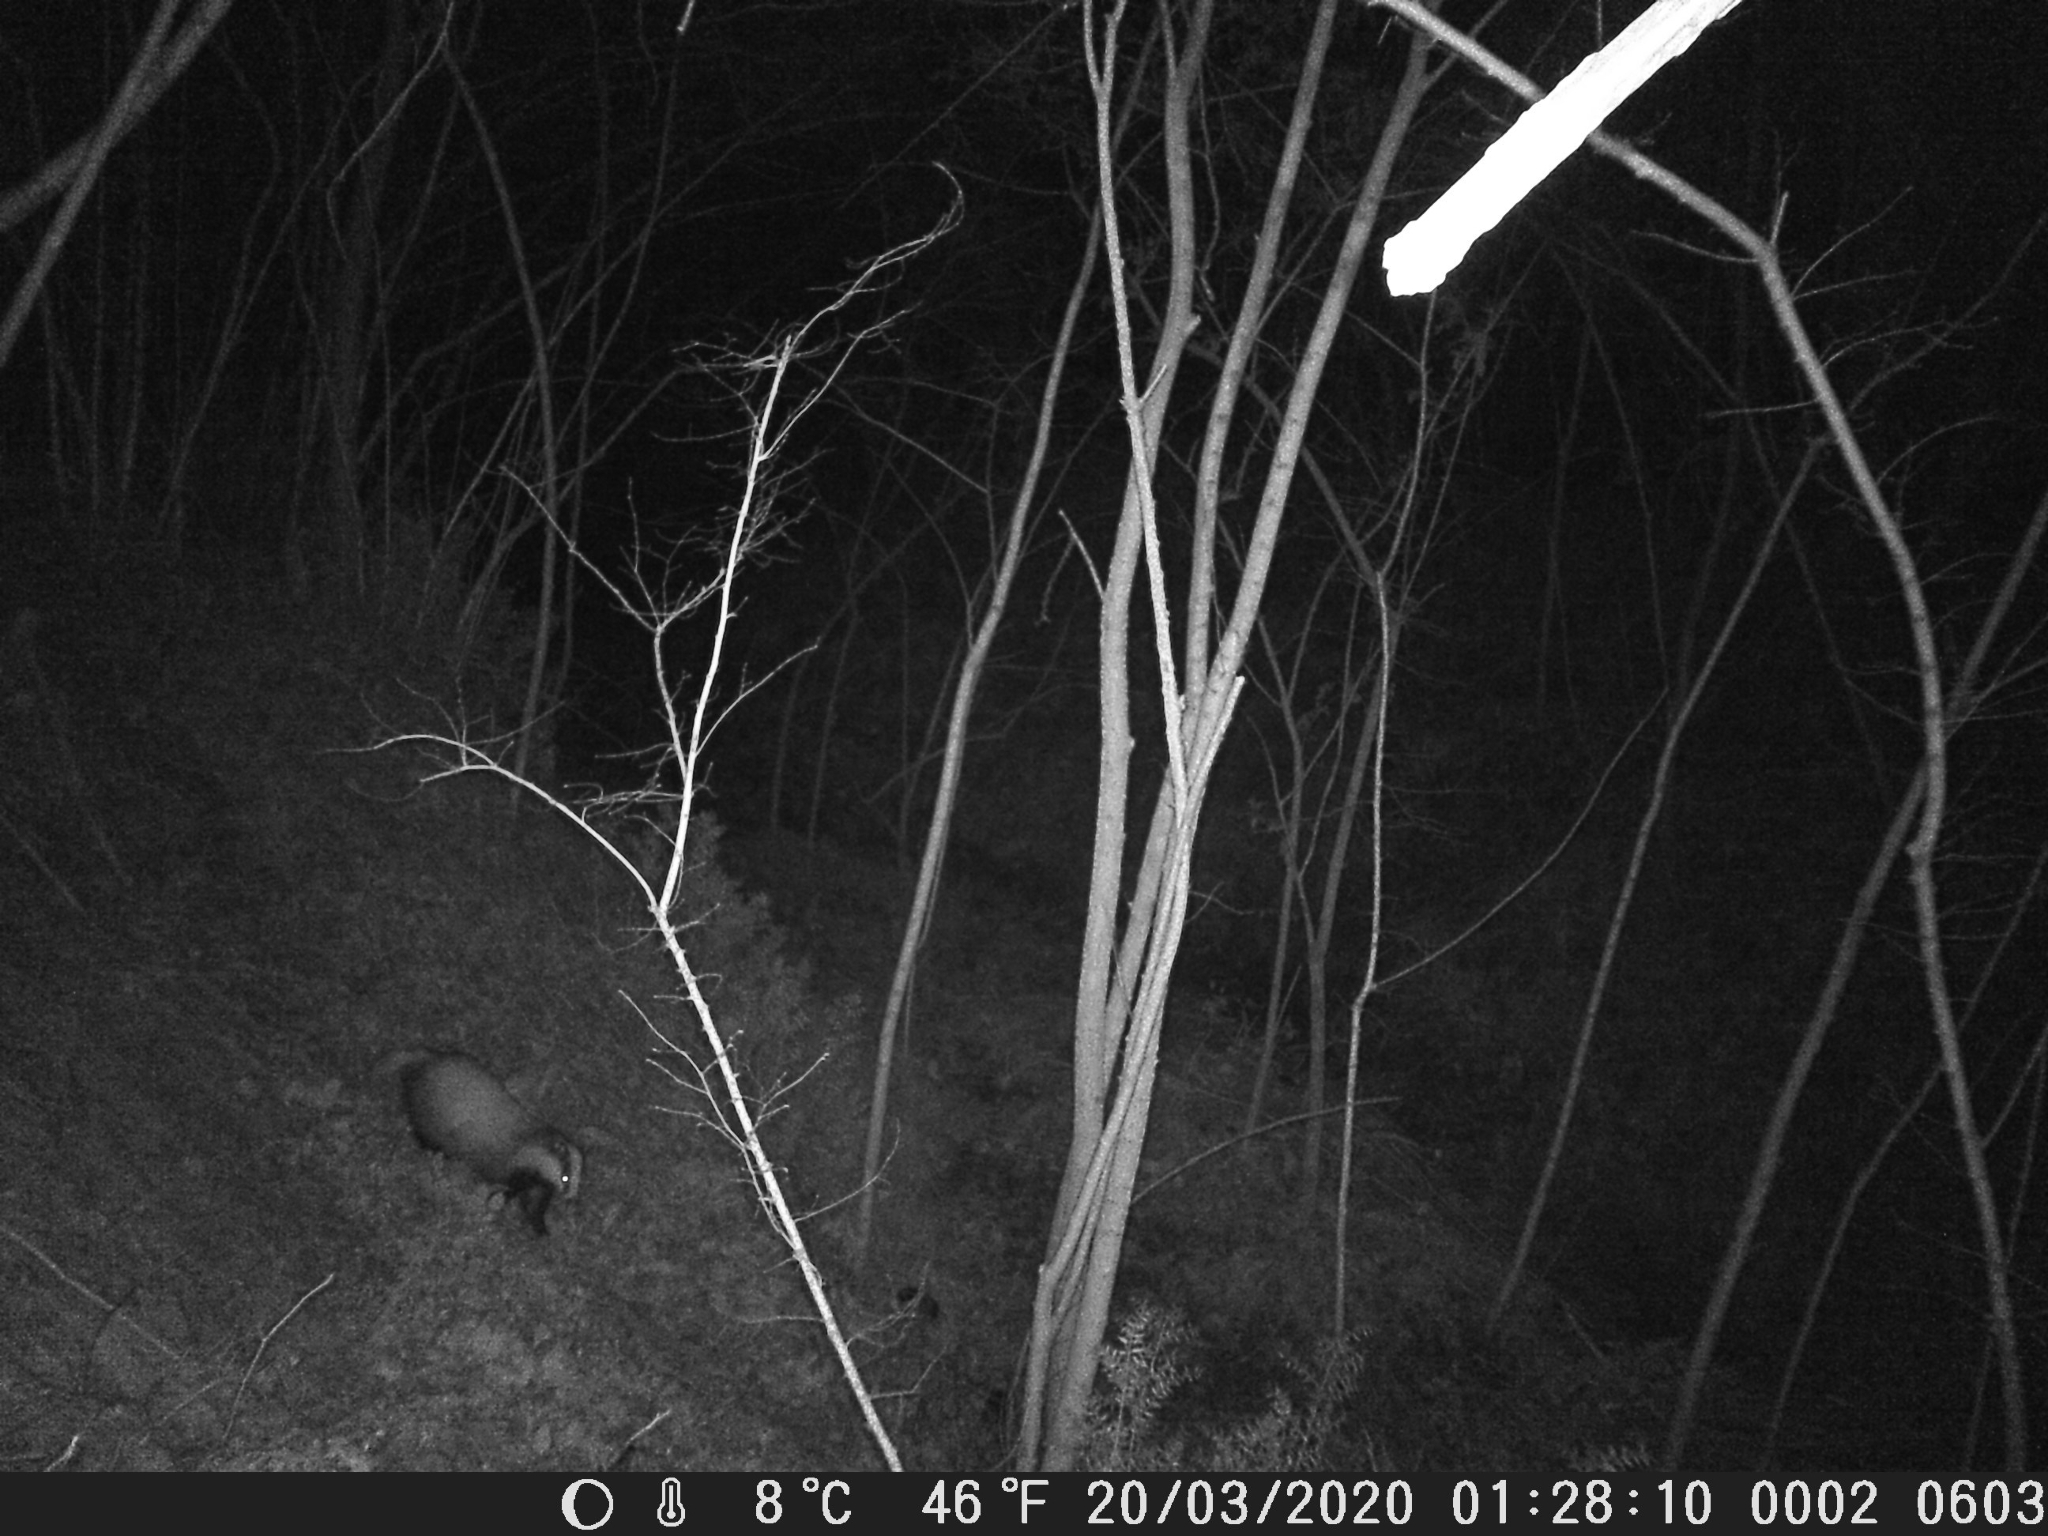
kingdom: Animalia
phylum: Chordata
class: Mammalia
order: Carnivora
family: Mustelidae
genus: Meles
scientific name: Meles meles
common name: Eurasian badger
